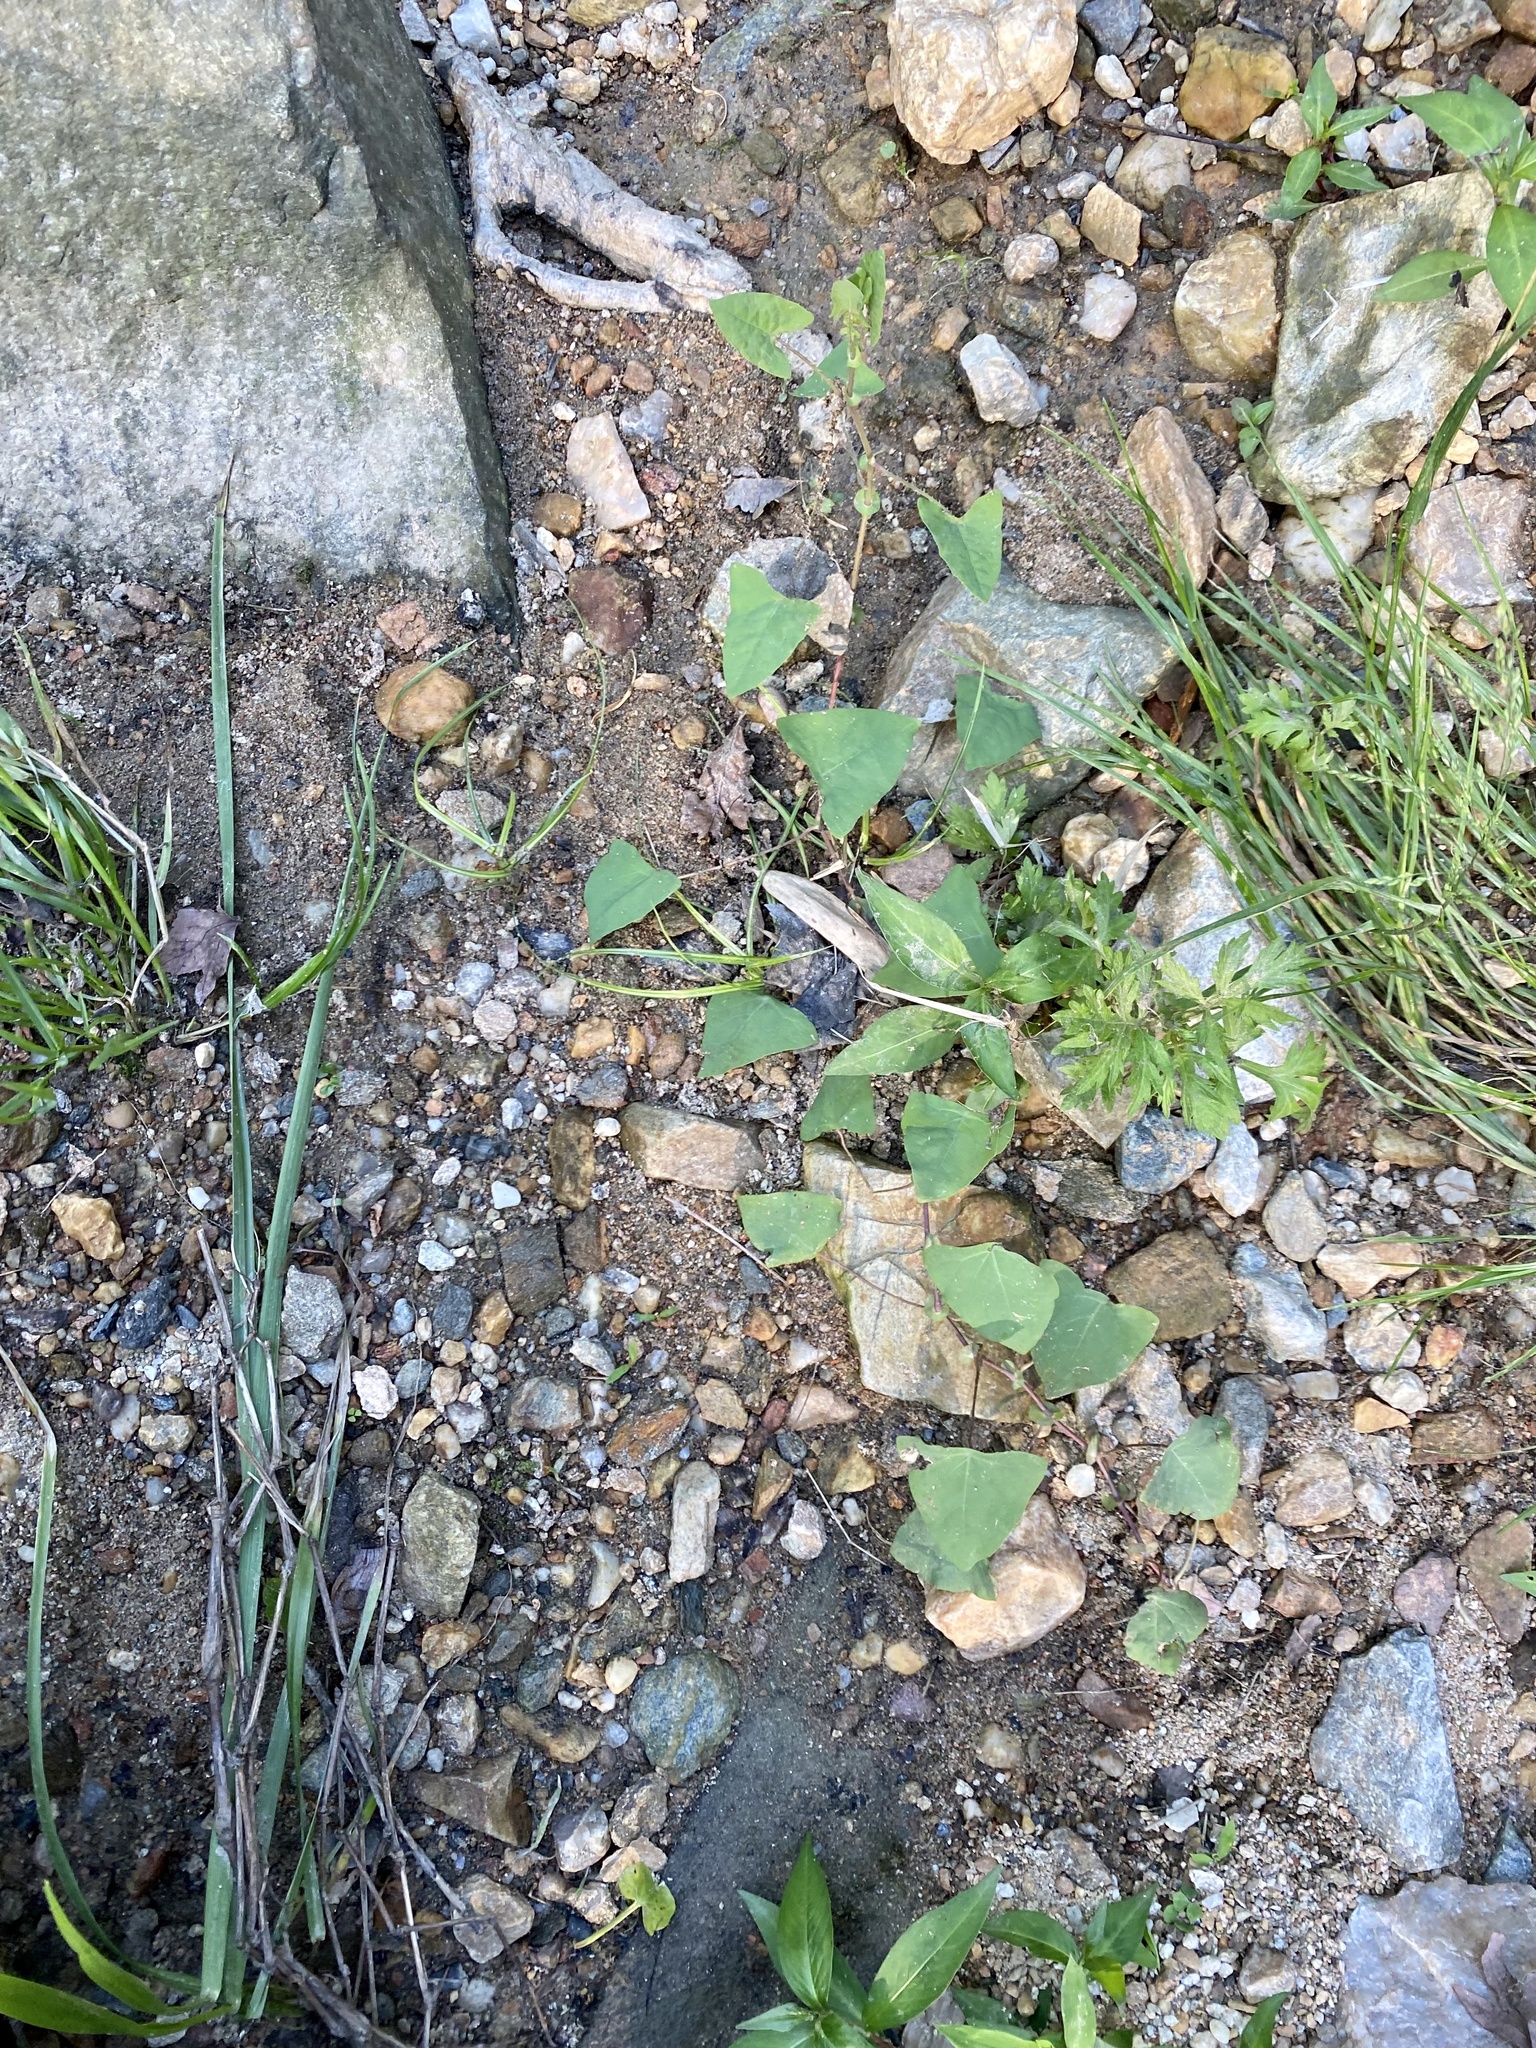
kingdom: Plantae
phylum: Tracheophyta
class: Magnoliopsida
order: Caryophyllales
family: Polygonaceae
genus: Persicaria
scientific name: Persicaria perfoliata
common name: Asiatic tearthumb
